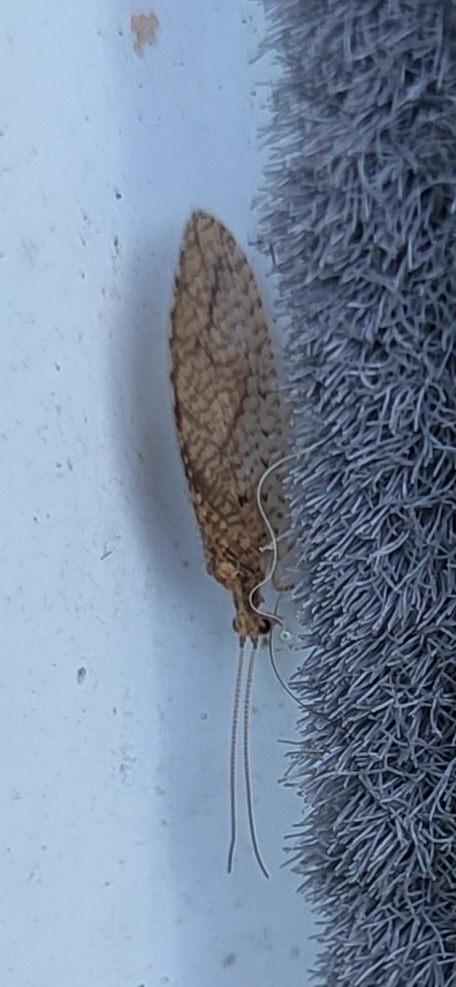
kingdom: Animalia
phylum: Arthropoda
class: Insecta
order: Neuroptera
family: Hemerobiidae
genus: Micromus
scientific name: Micromus posticus
